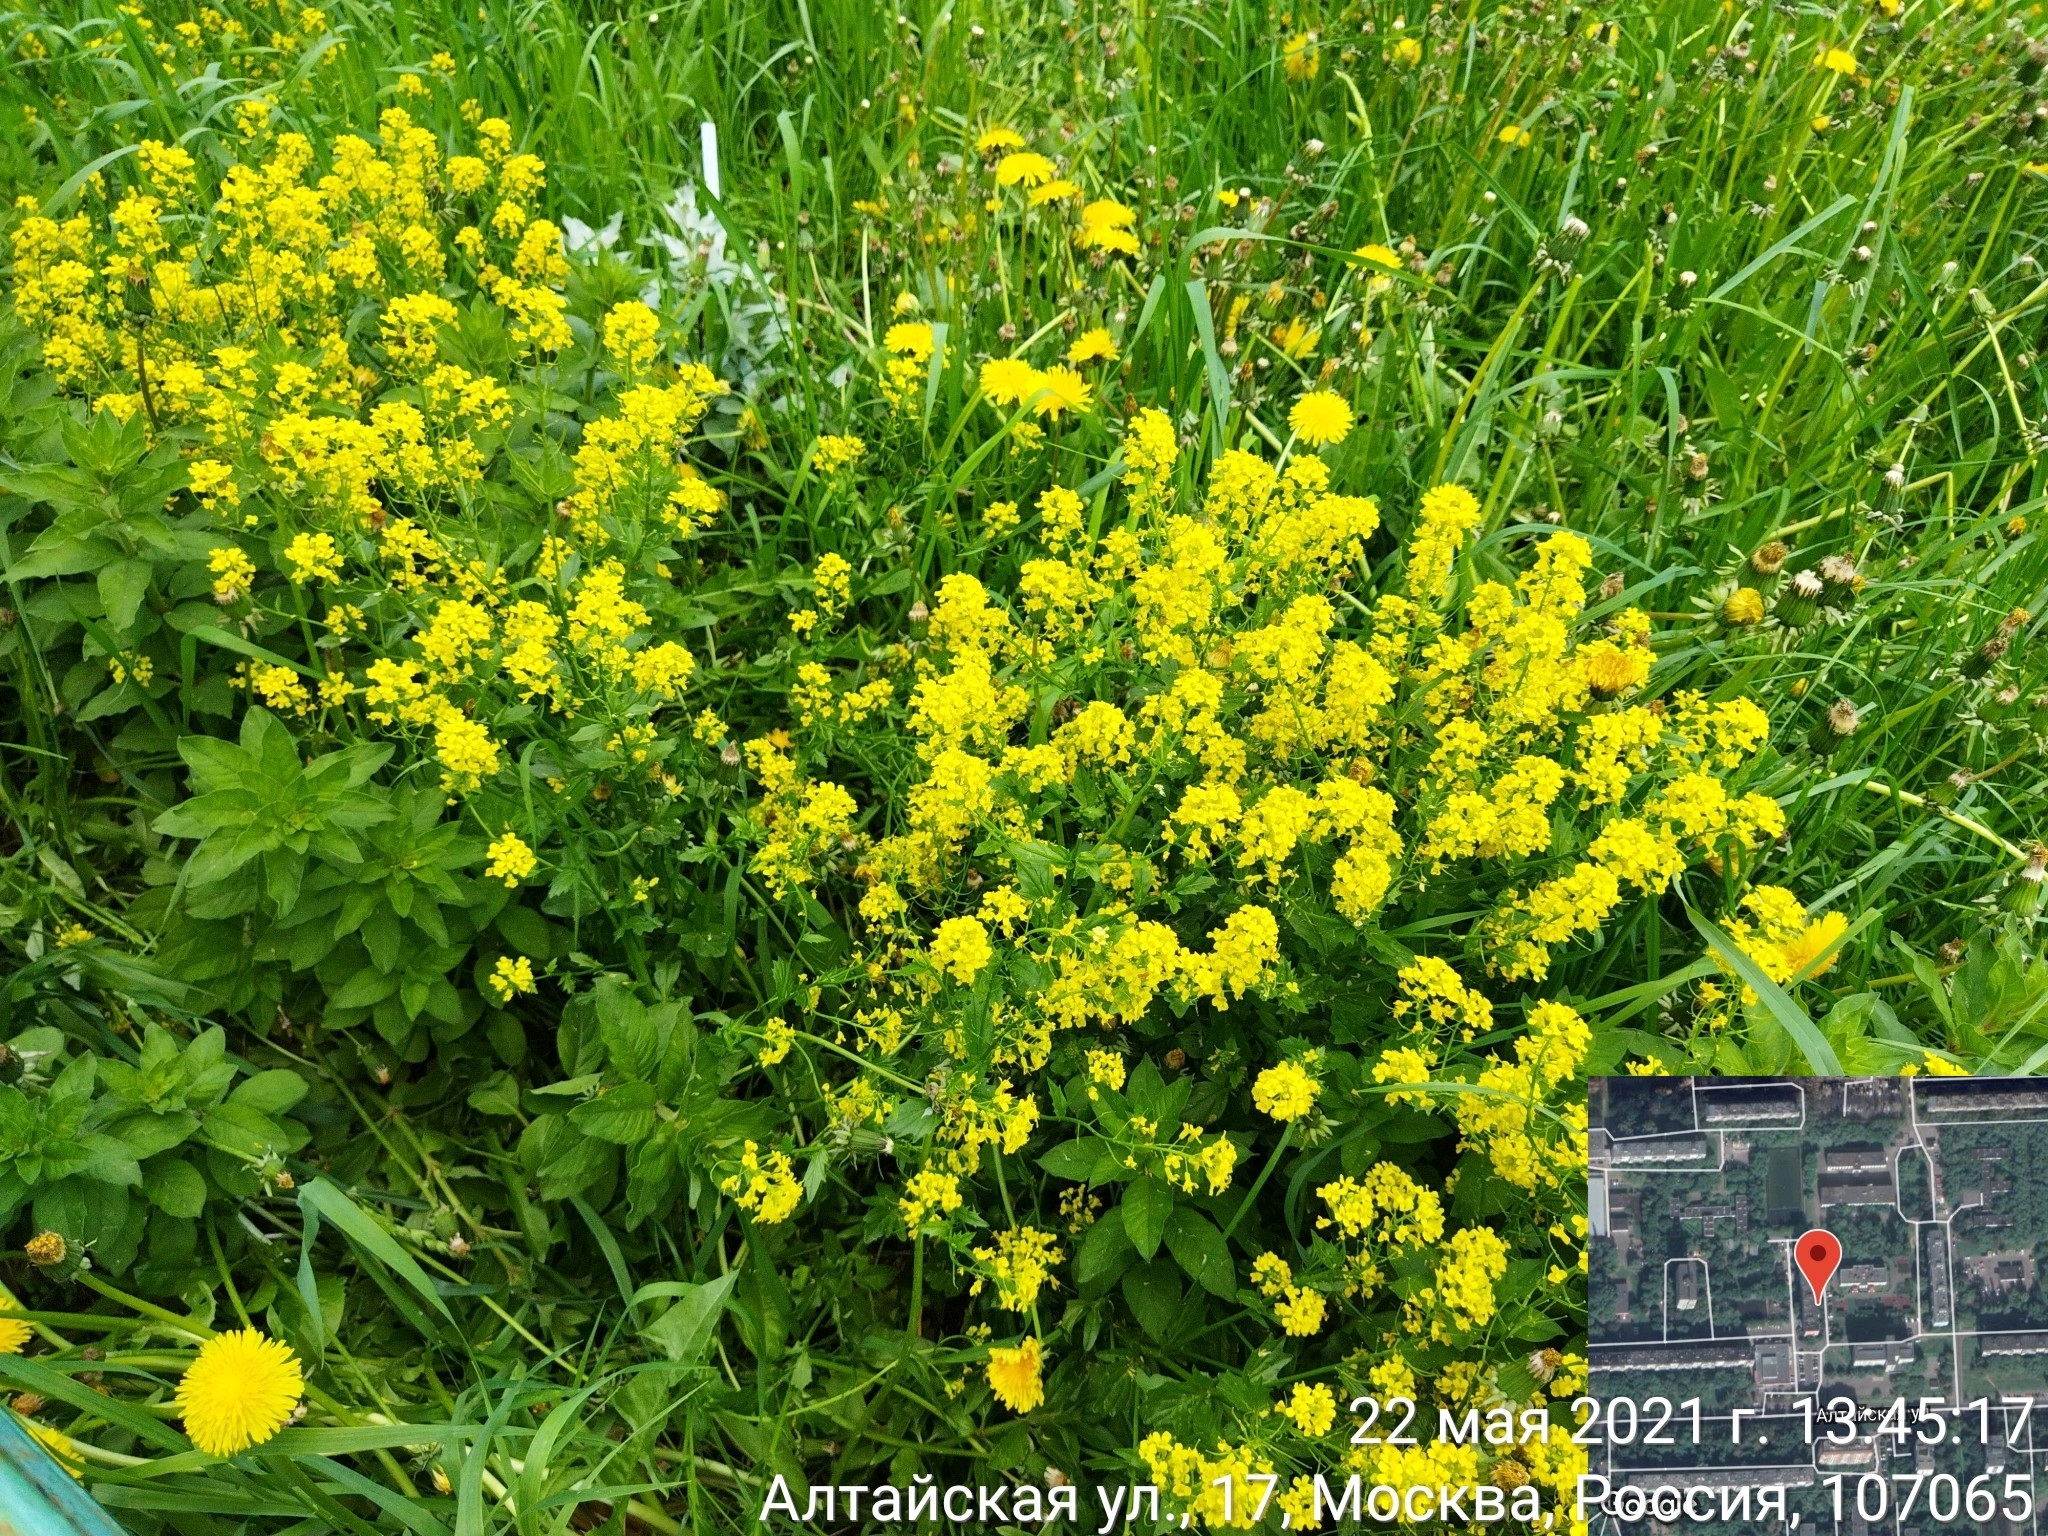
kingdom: Plantae
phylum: Tracheophyta
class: Magnoliopsida
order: Brassicales
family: Brassicaceae
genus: Barbarea
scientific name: Barbarea vulgaris
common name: Cressy-greens
